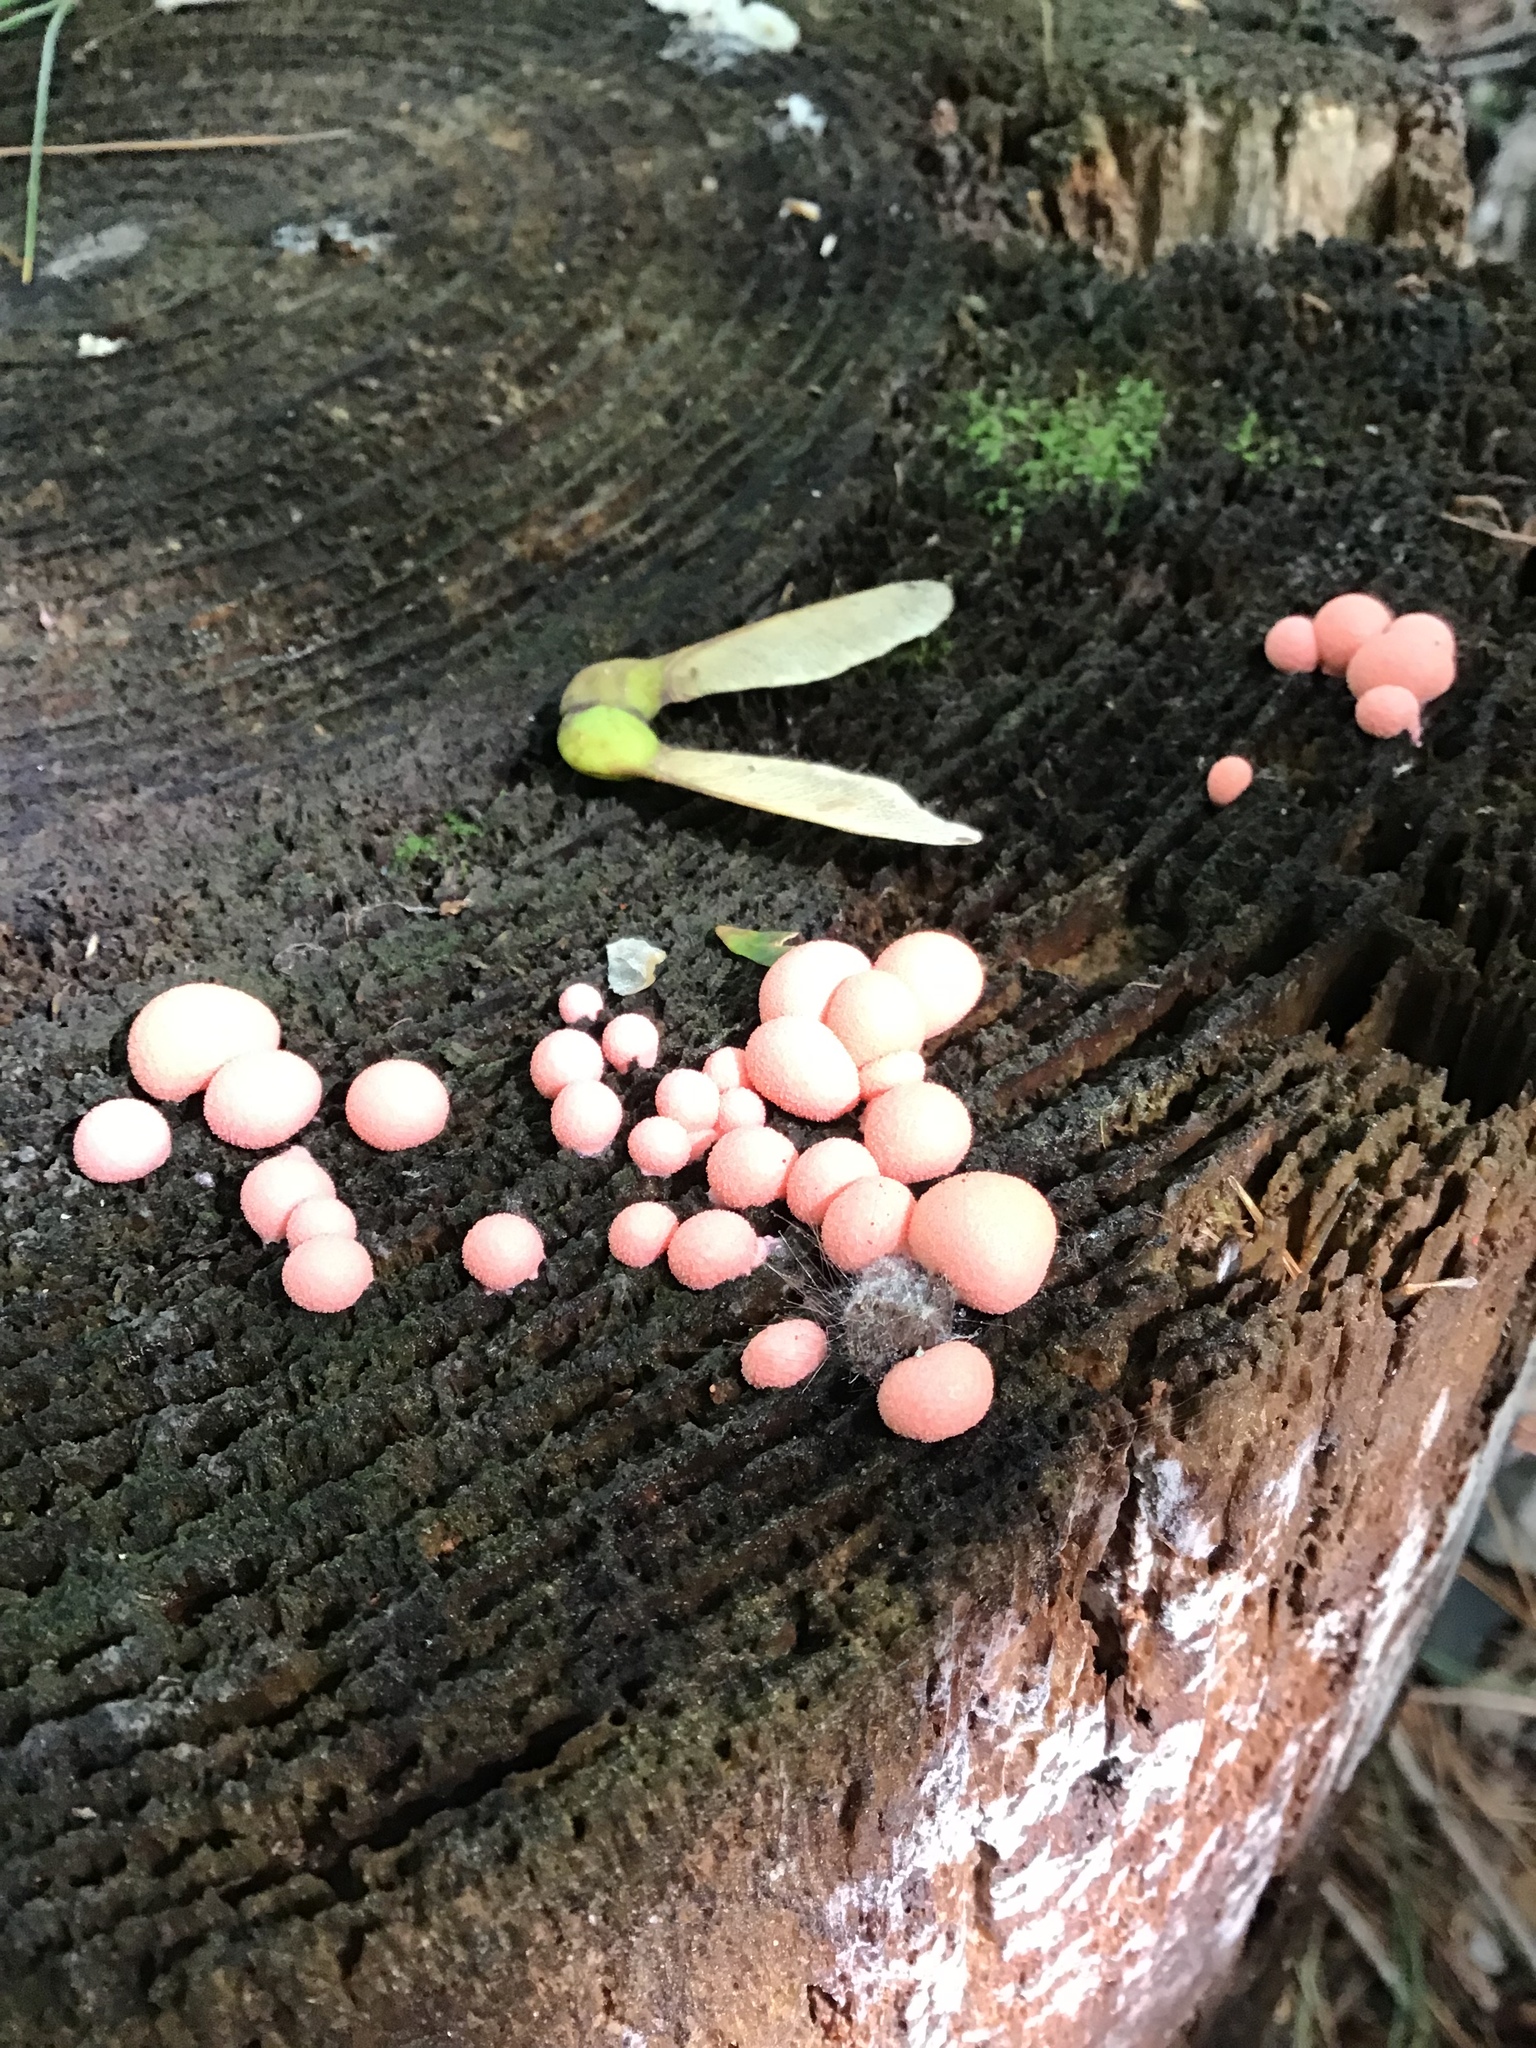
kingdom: Protozoa
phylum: Mycetozoa
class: Myxomycetes
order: Cribrariales
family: Tubiferaceae
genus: Lycogala
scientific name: Lycogala epidendrum
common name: Wolf's milk
